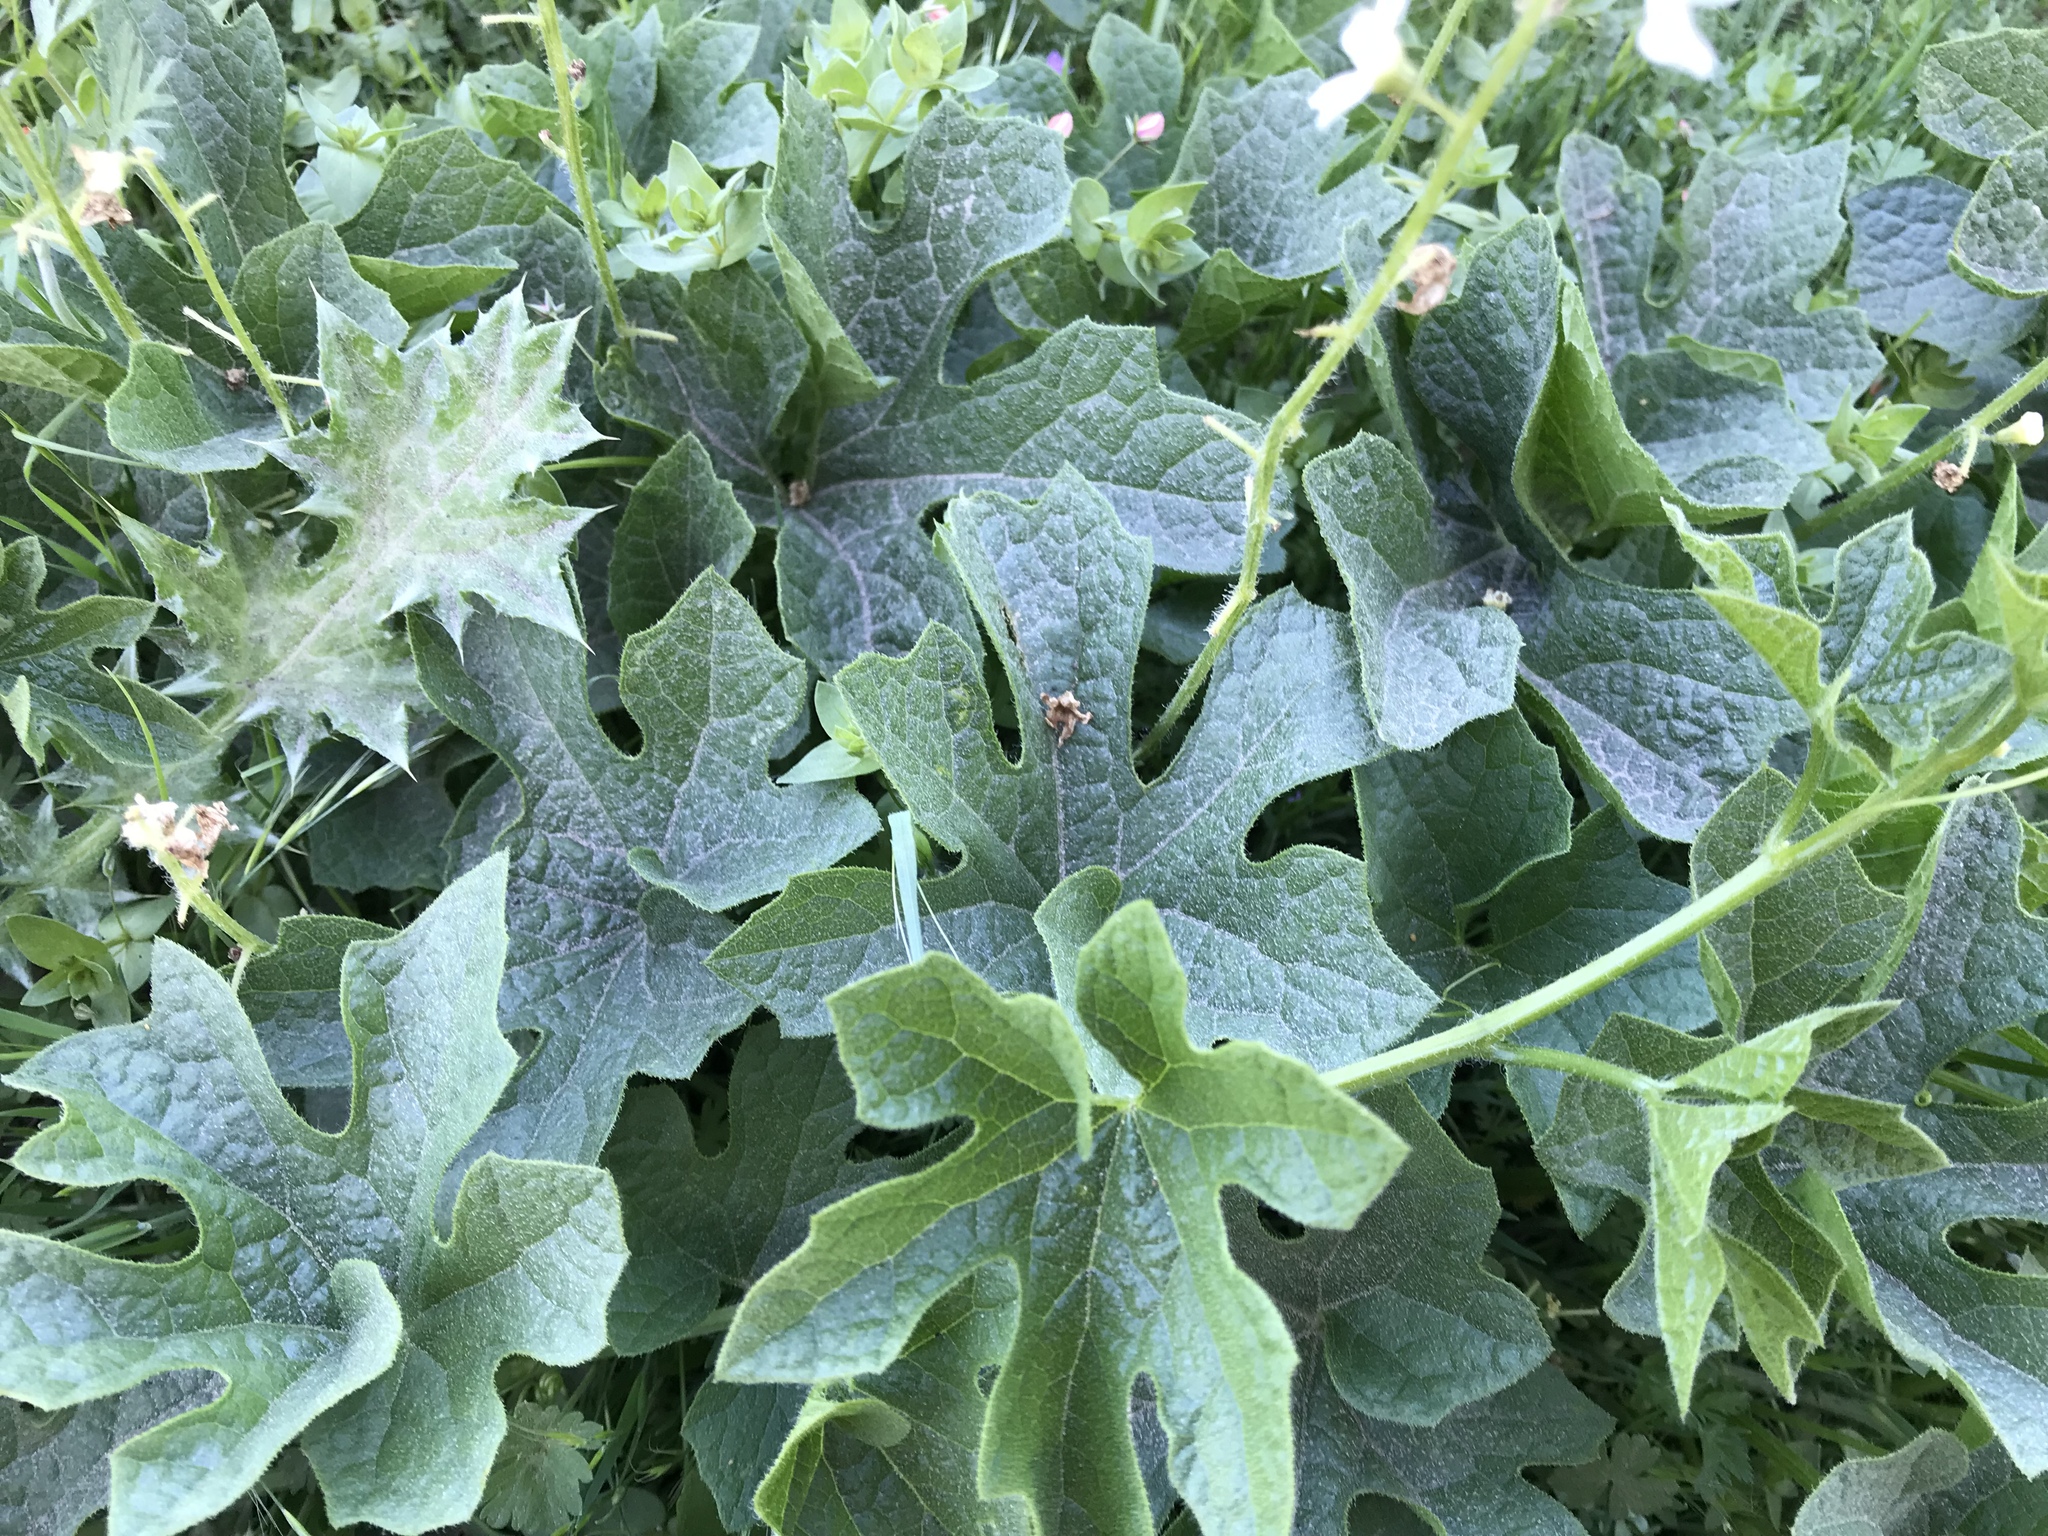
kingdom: Plantae
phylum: Tracheophyta
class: Magnoliopsida
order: Cucurbitales
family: Cucurbitaceae
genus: Marah
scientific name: Marah oregana
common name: Coastal manroot
